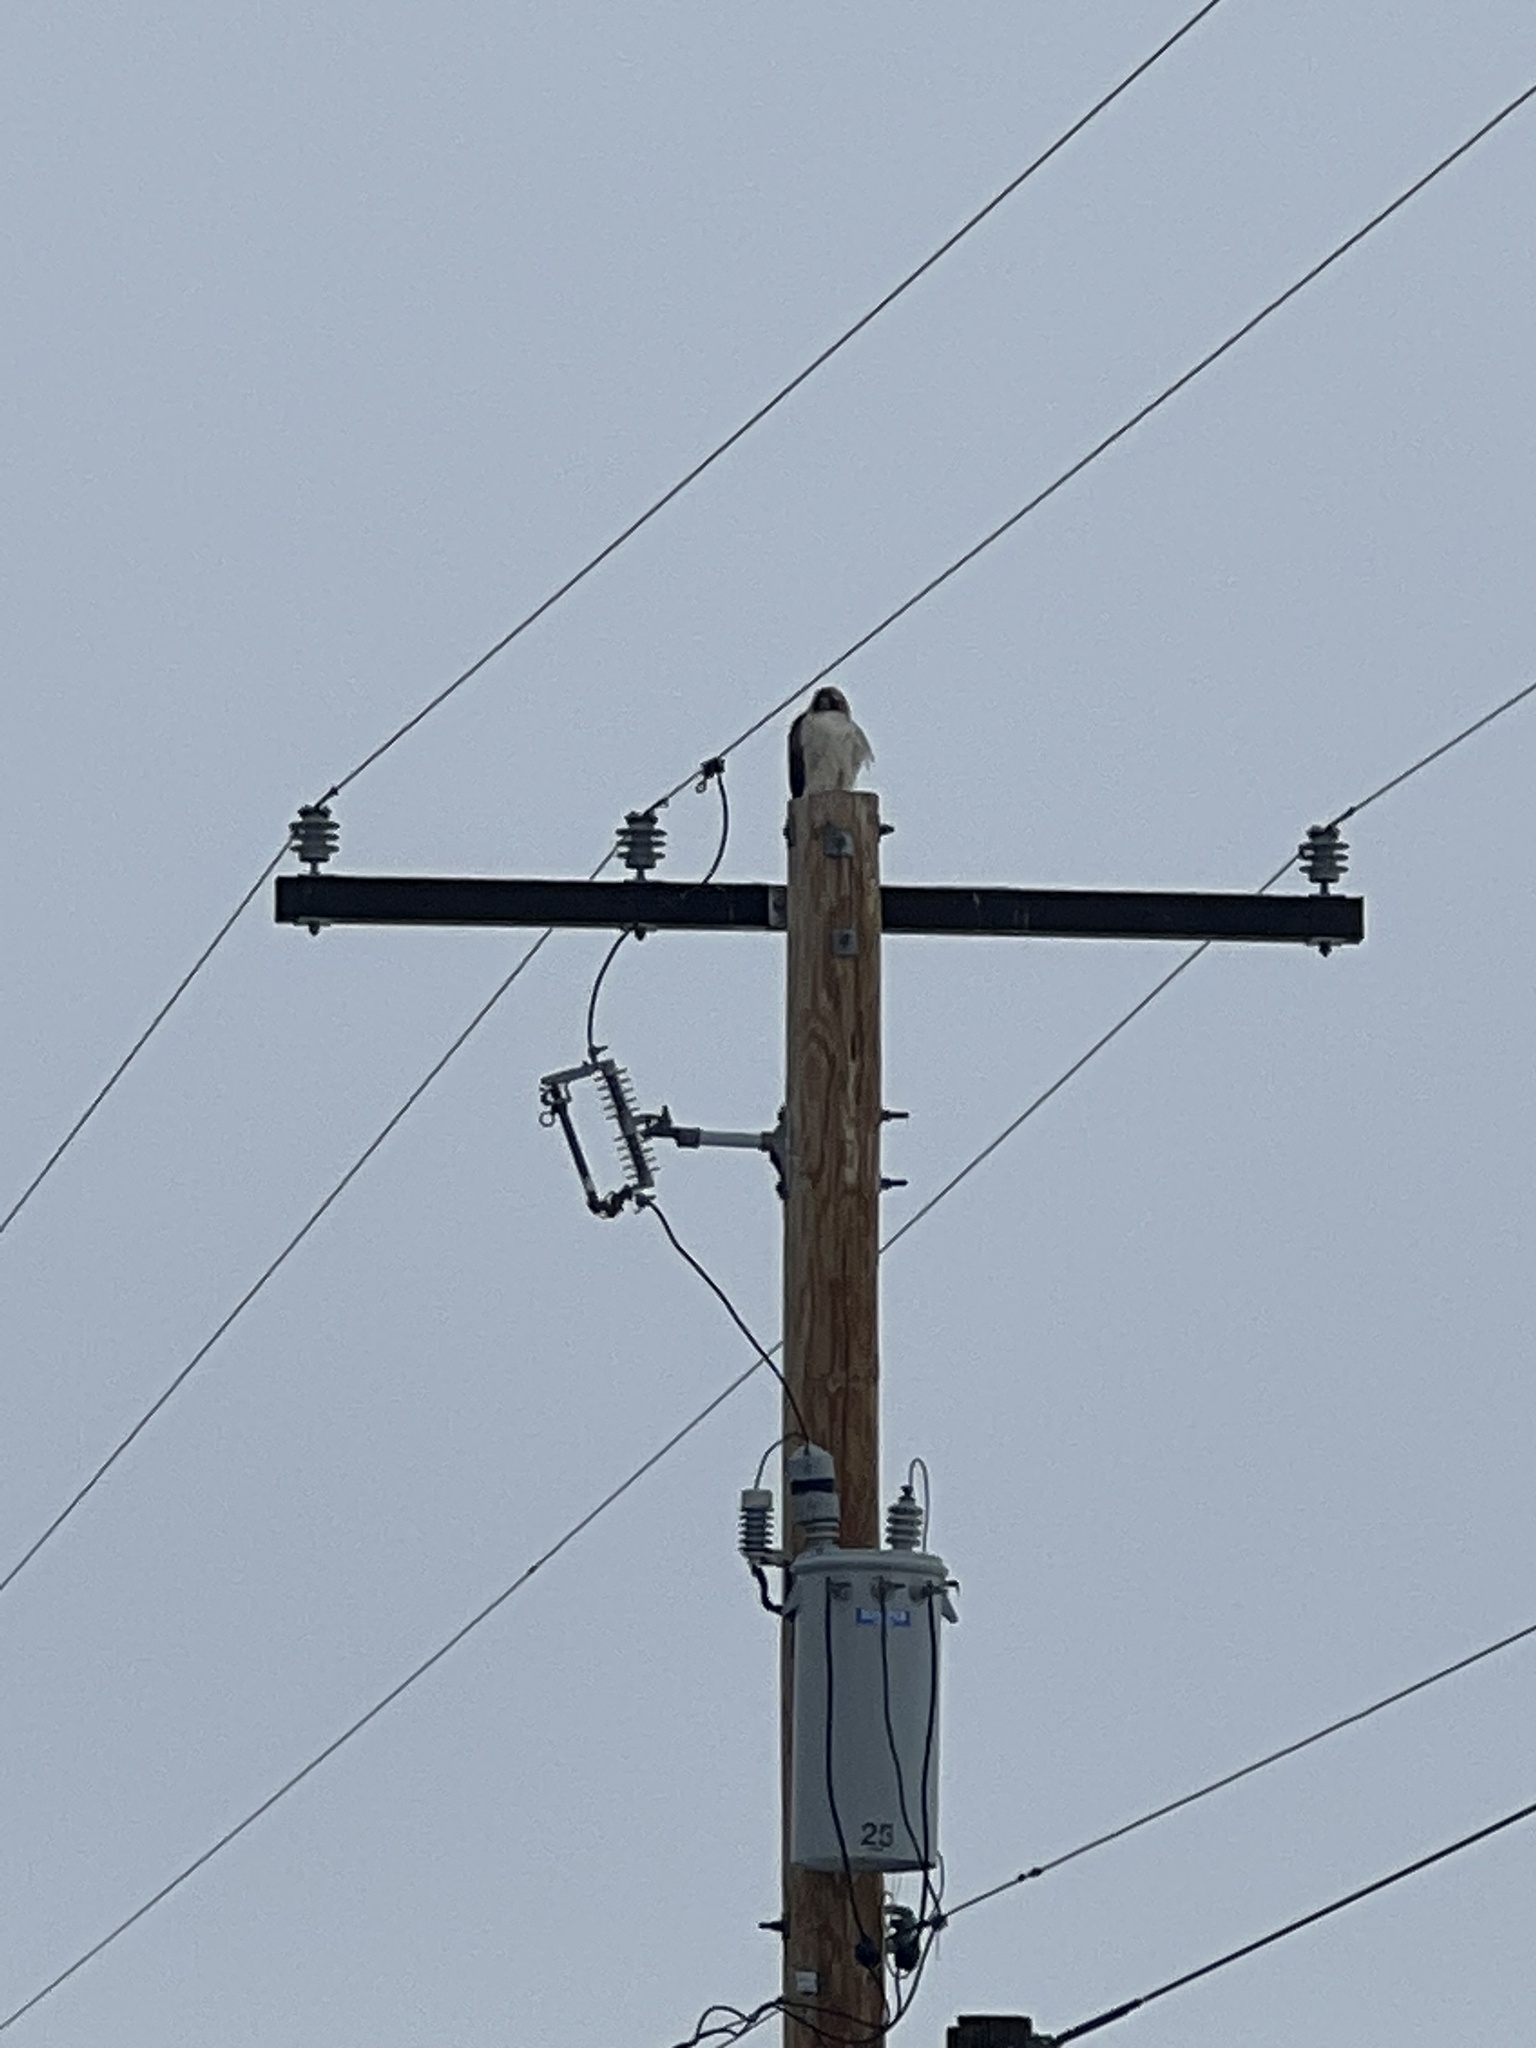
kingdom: Animalia
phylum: Chordata
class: Aves
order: Accipitriformes
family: Accipitridae
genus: Buteo
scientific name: Buteo jamaicensis
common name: Red-tailed hawk
